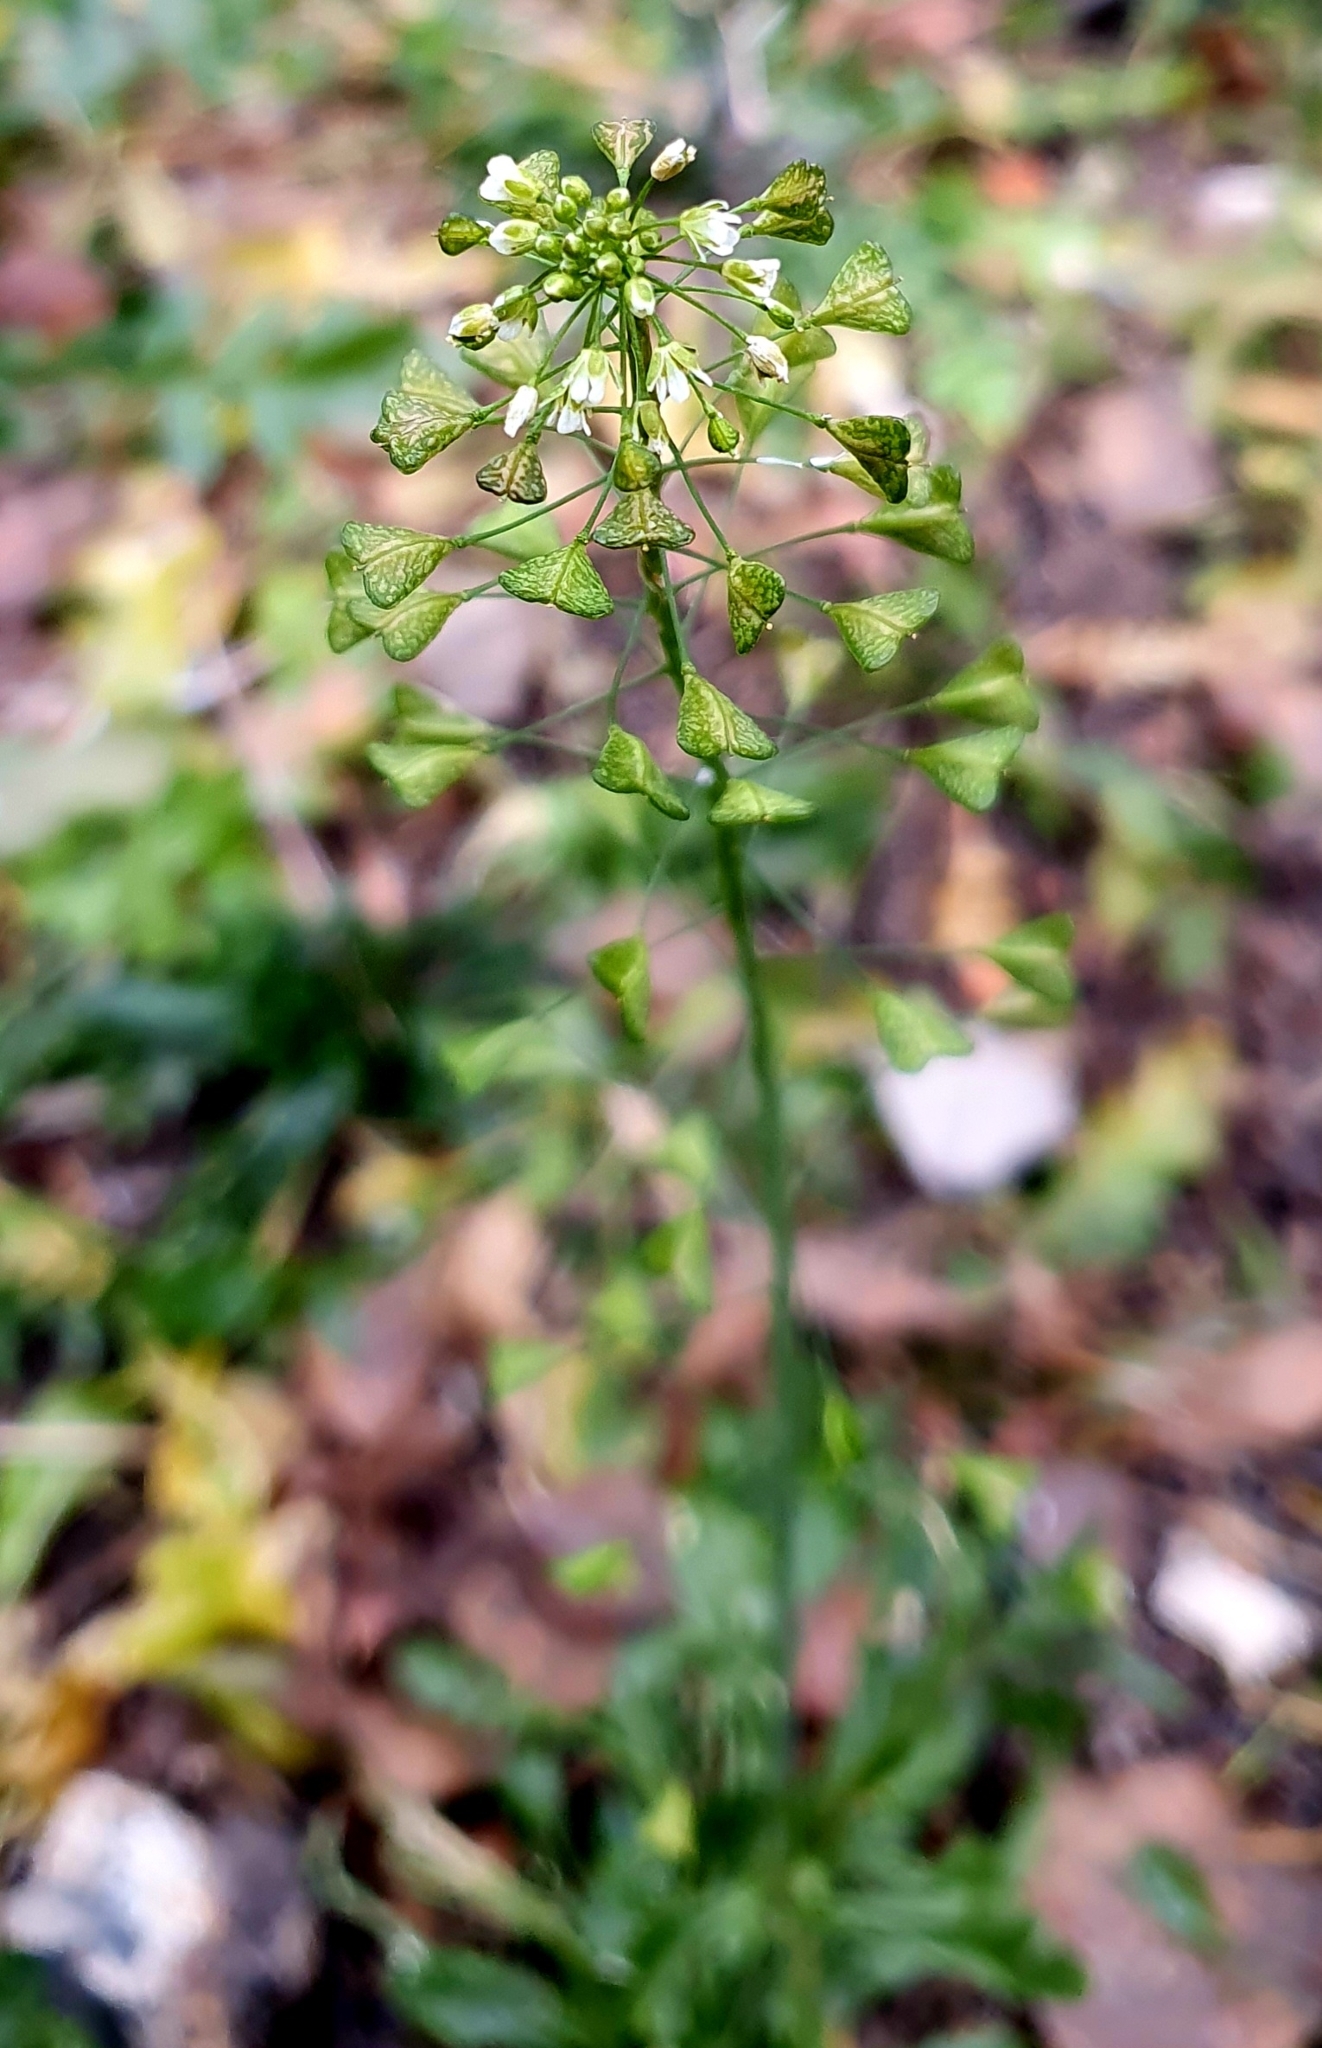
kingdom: Plantae
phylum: Tracheophyta
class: Magnoliopsida
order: Brassicales
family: Brassicaceae
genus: Capsella
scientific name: Capsella bursa-pastoris
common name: Shepherd's purse
